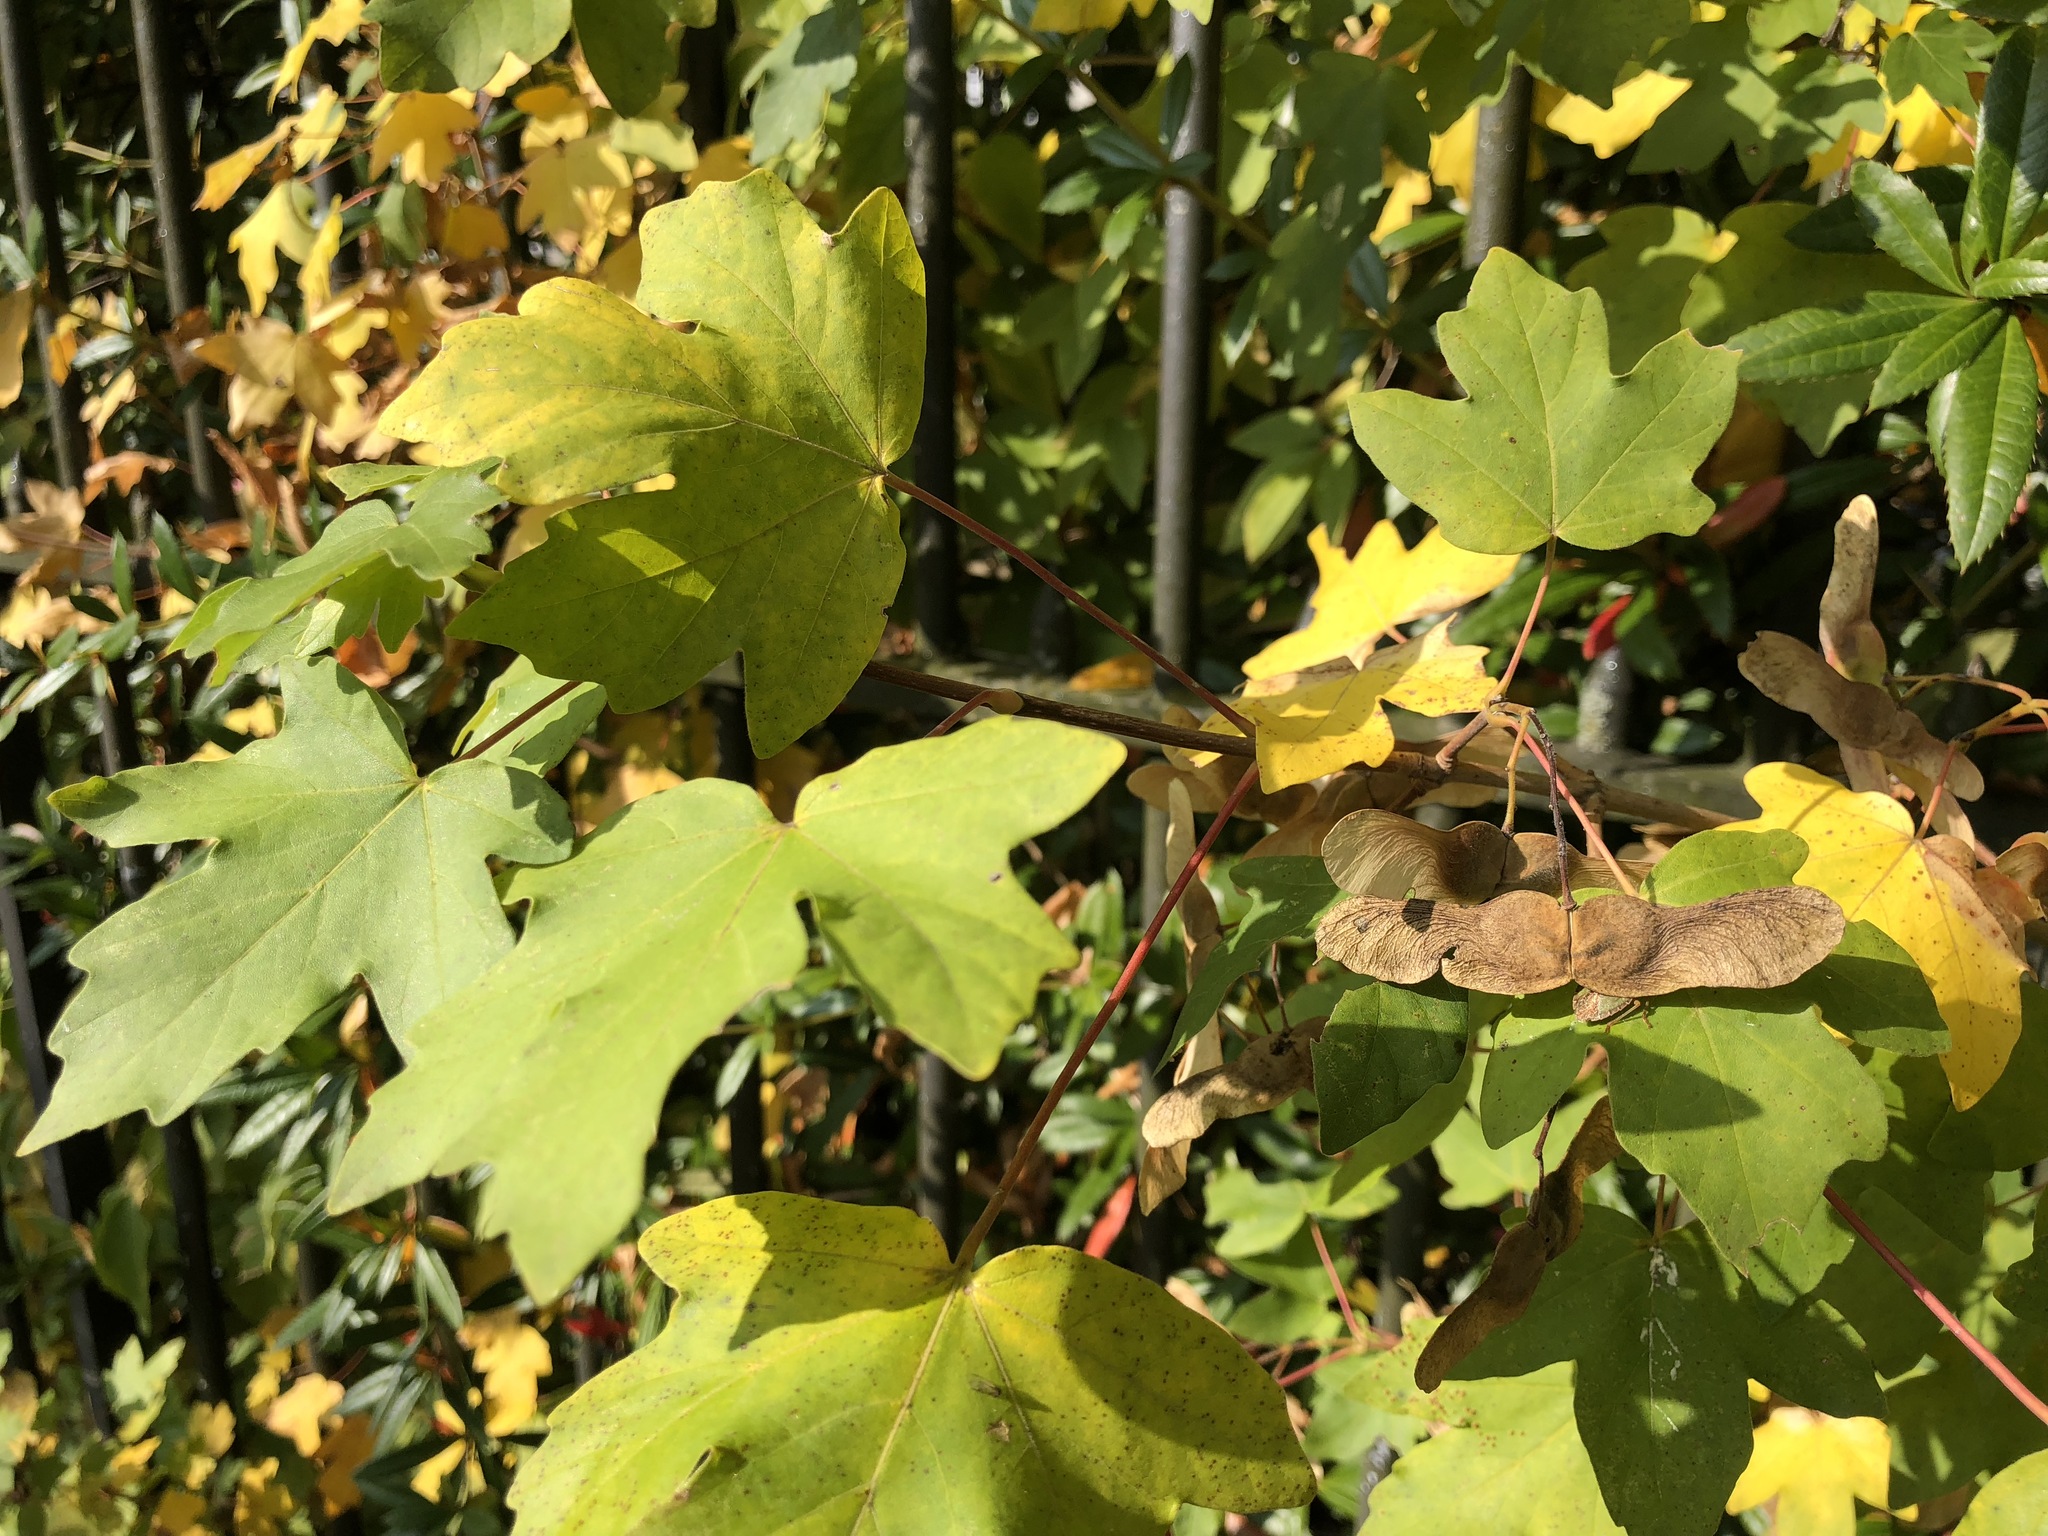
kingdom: Plantae
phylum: Tracheophyta
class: Magnoliopsida
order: Sapindales
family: Sapindaceae
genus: Acer
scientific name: Acer campestre
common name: Field maple
